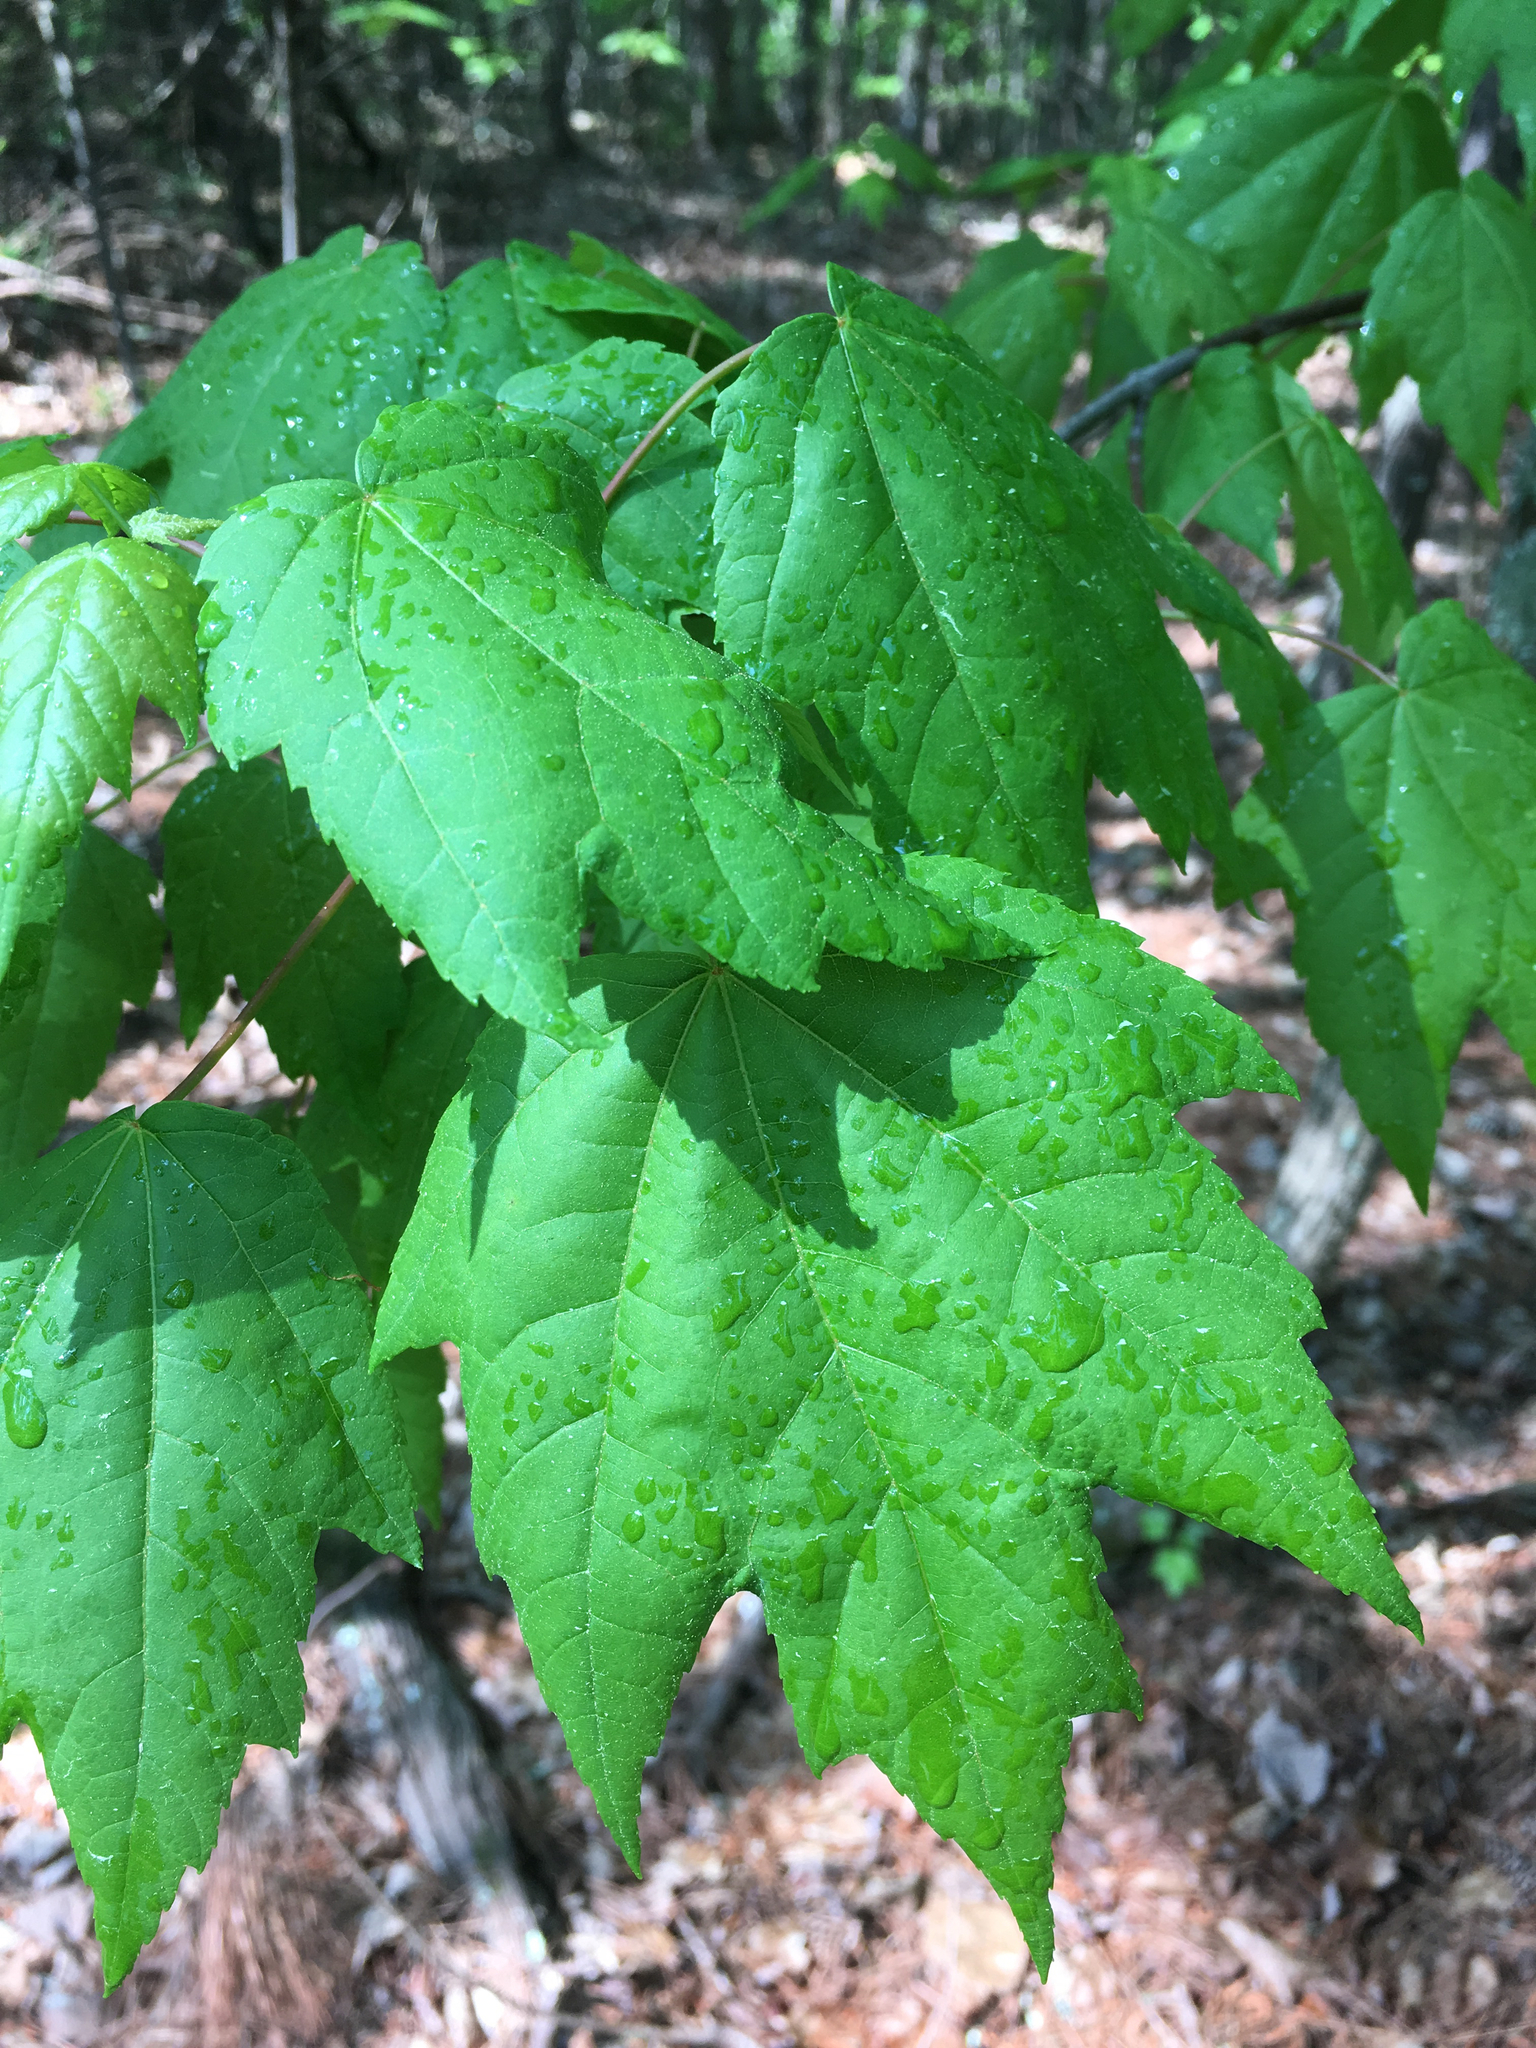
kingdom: Plantae
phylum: Tracheophyta
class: Magnoliopsida
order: Sapindales
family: Sapindaceae
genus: Acer
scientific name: Acer rubrum
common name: Red maple
